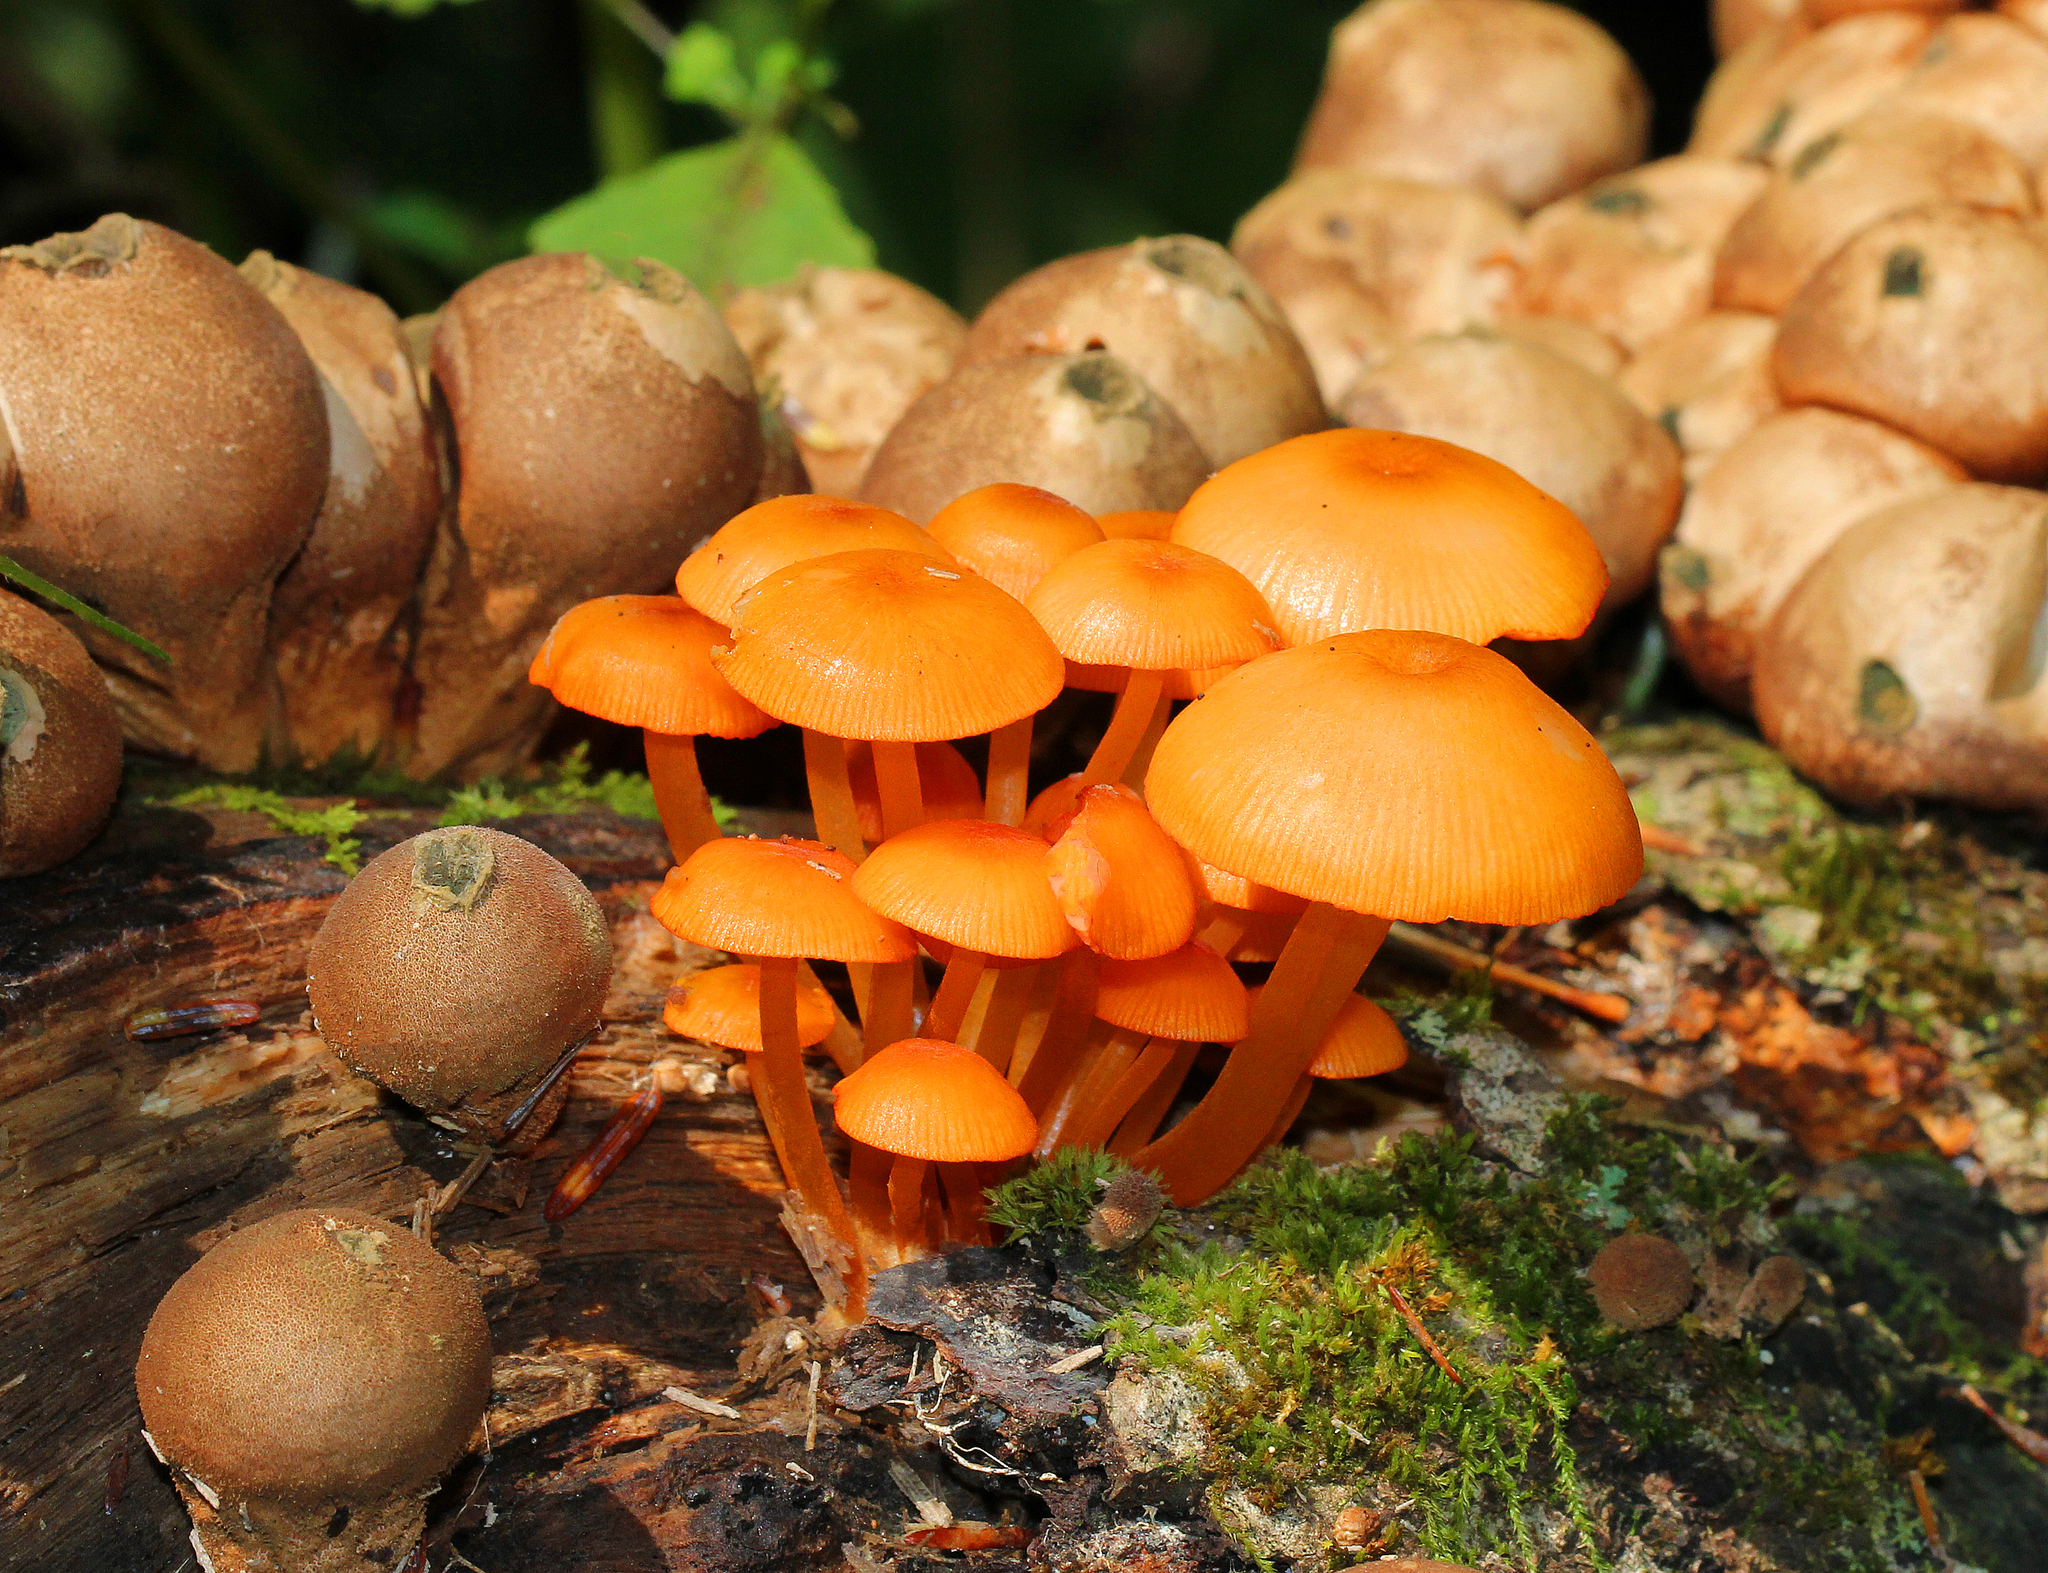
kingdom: Fungi
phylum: Basidiomycota
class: Agaricomycetes
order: Agaricales
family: Mycenaceae
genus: Mycena
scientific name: Mycena leaiana
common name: Orange mycena
